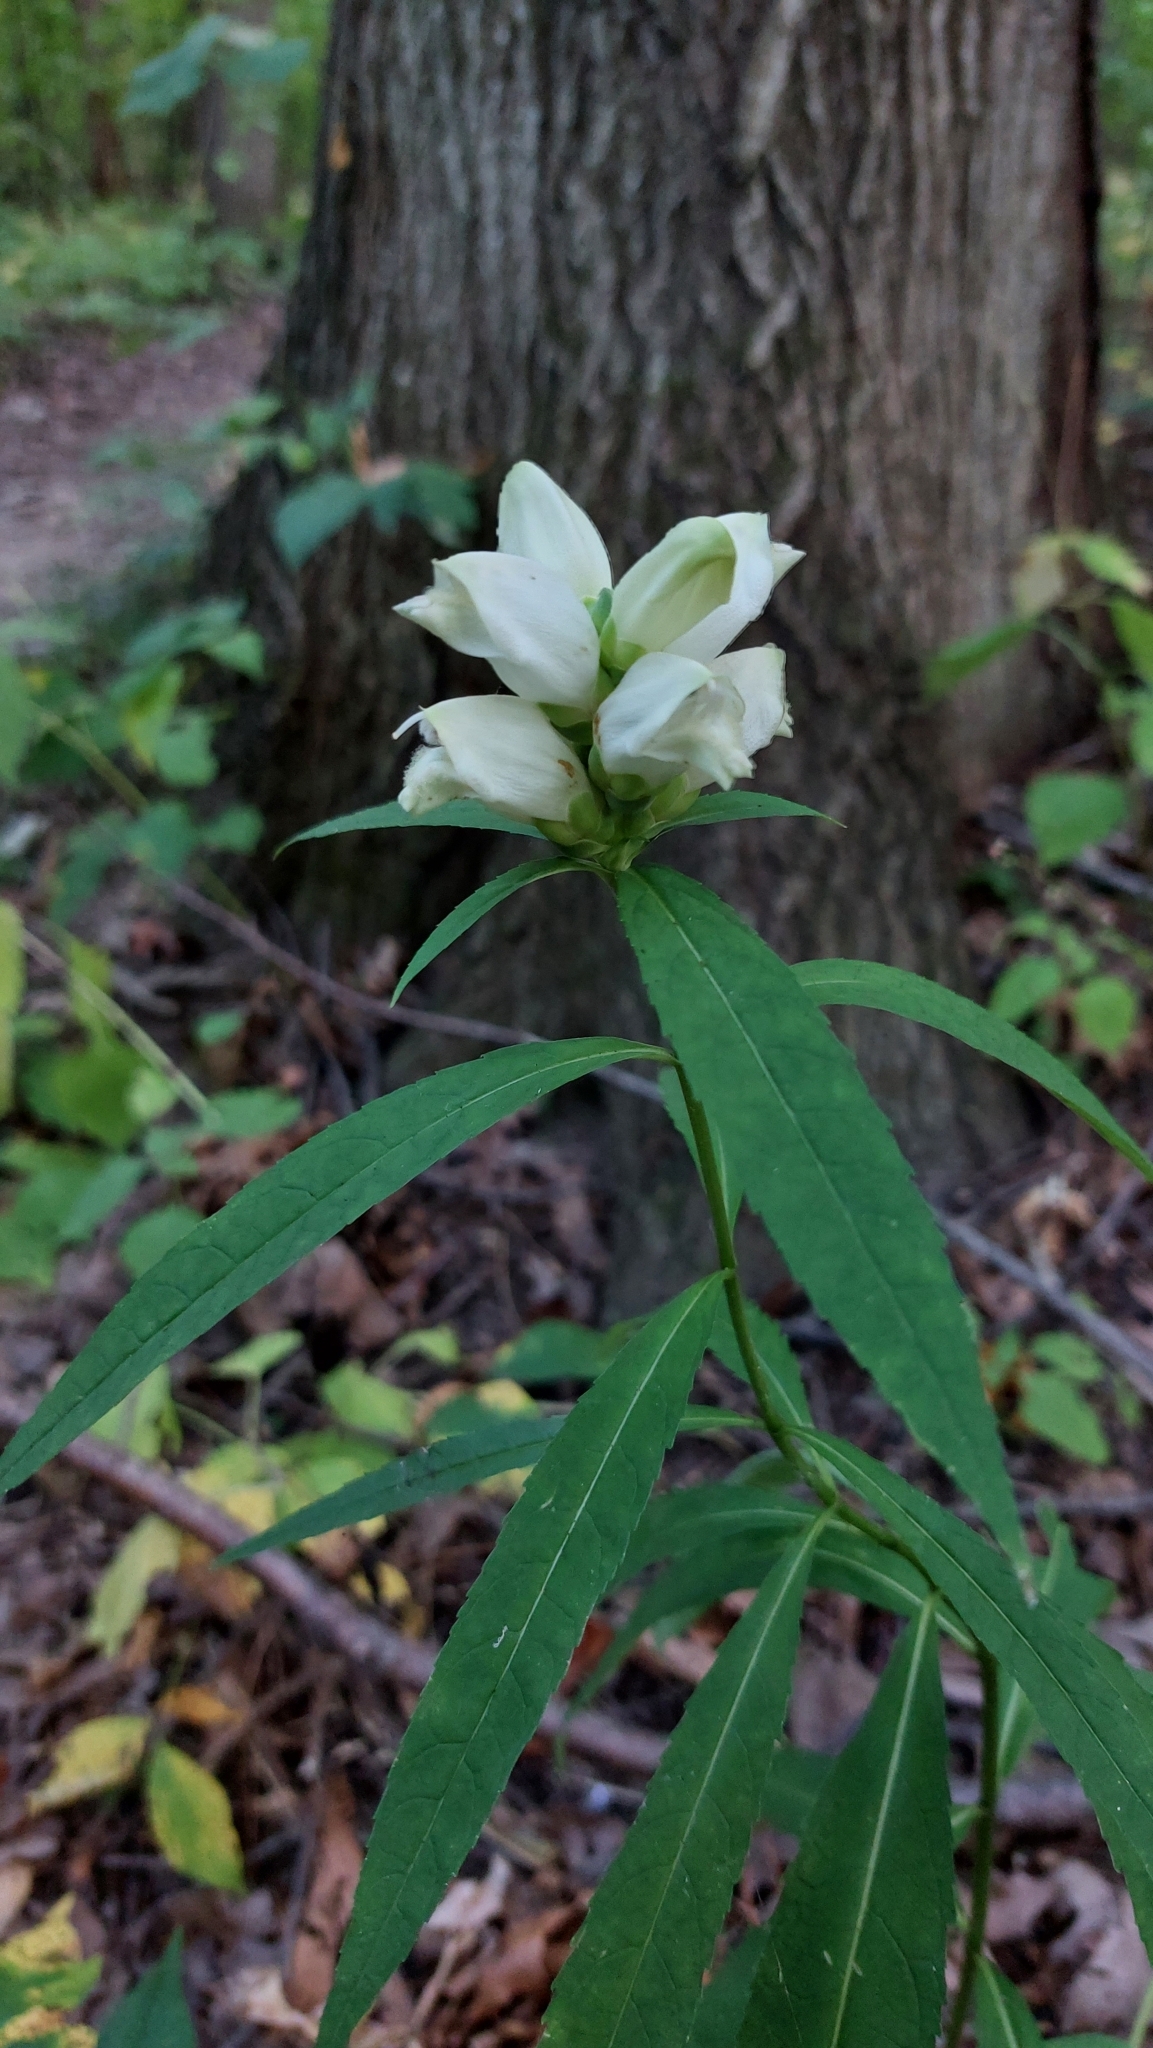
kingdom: Plantae
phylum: Tracheophyta
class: Magnoliopsida
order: Lamiales
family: Plantaginaceae
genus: Chelone
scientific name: Chelone glabra
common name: Snakehead
